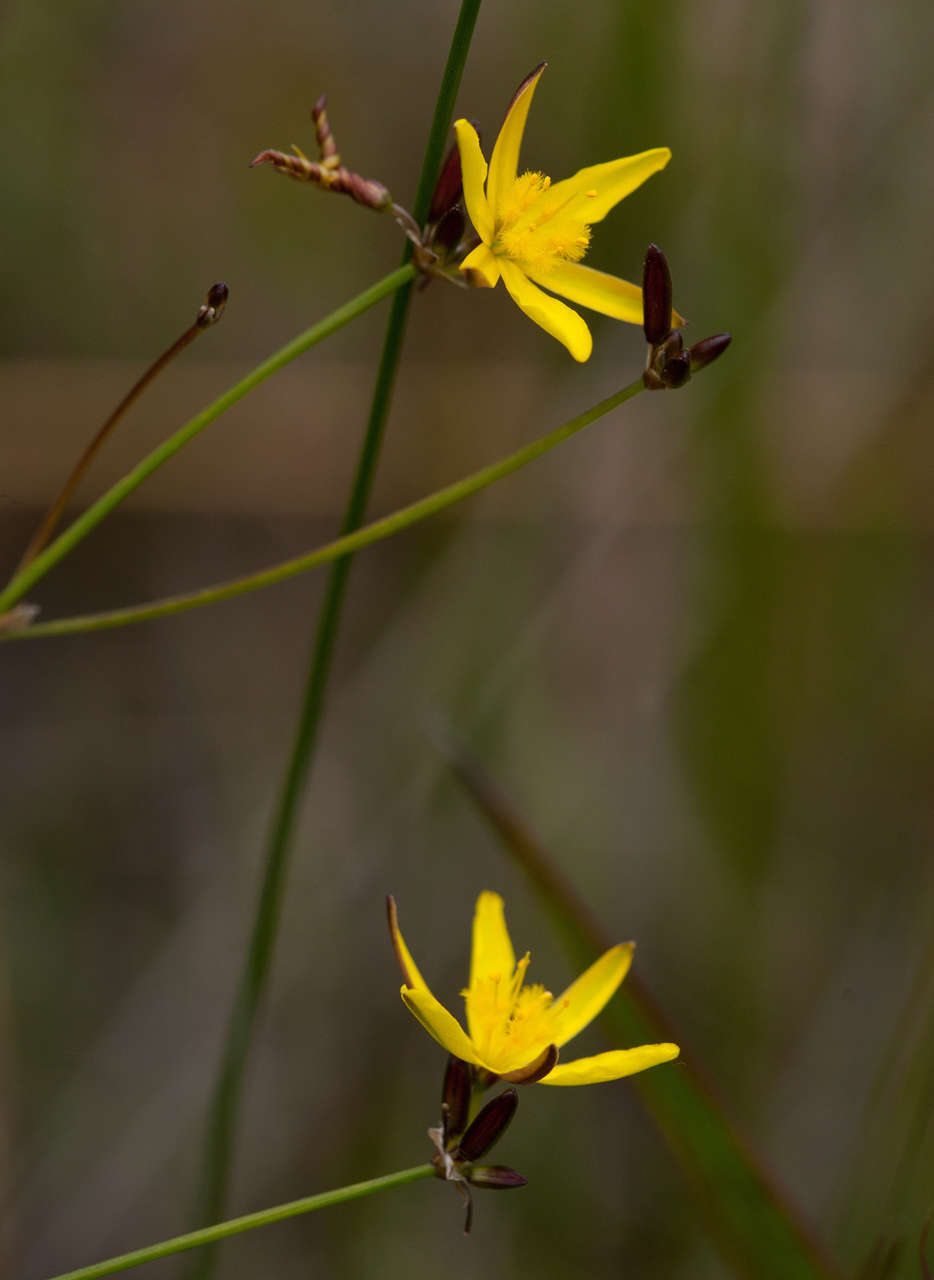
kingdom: Plantae
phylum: Tracheophyta
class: Liliopsida
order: Asparagales
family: Asphodelaceae
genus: Tricoryne
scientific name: Tricoryne elatior
